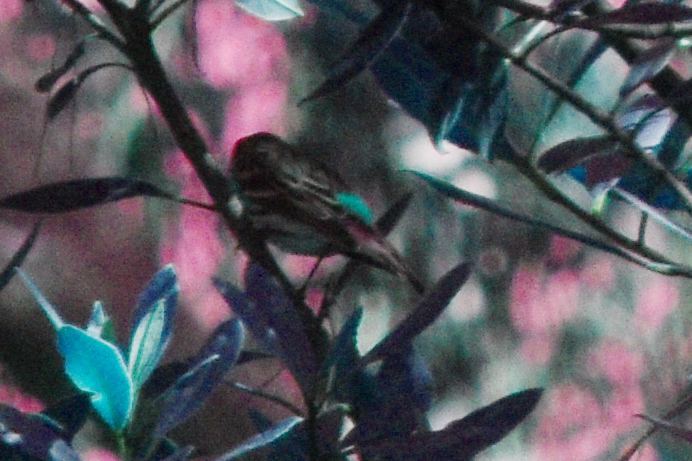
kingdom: Animalia
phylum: Chordata
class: Aves
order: Passeriformes
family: Parulidae
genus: Setophaga
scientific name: Setophaga coronata
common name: Myrtle warbler
